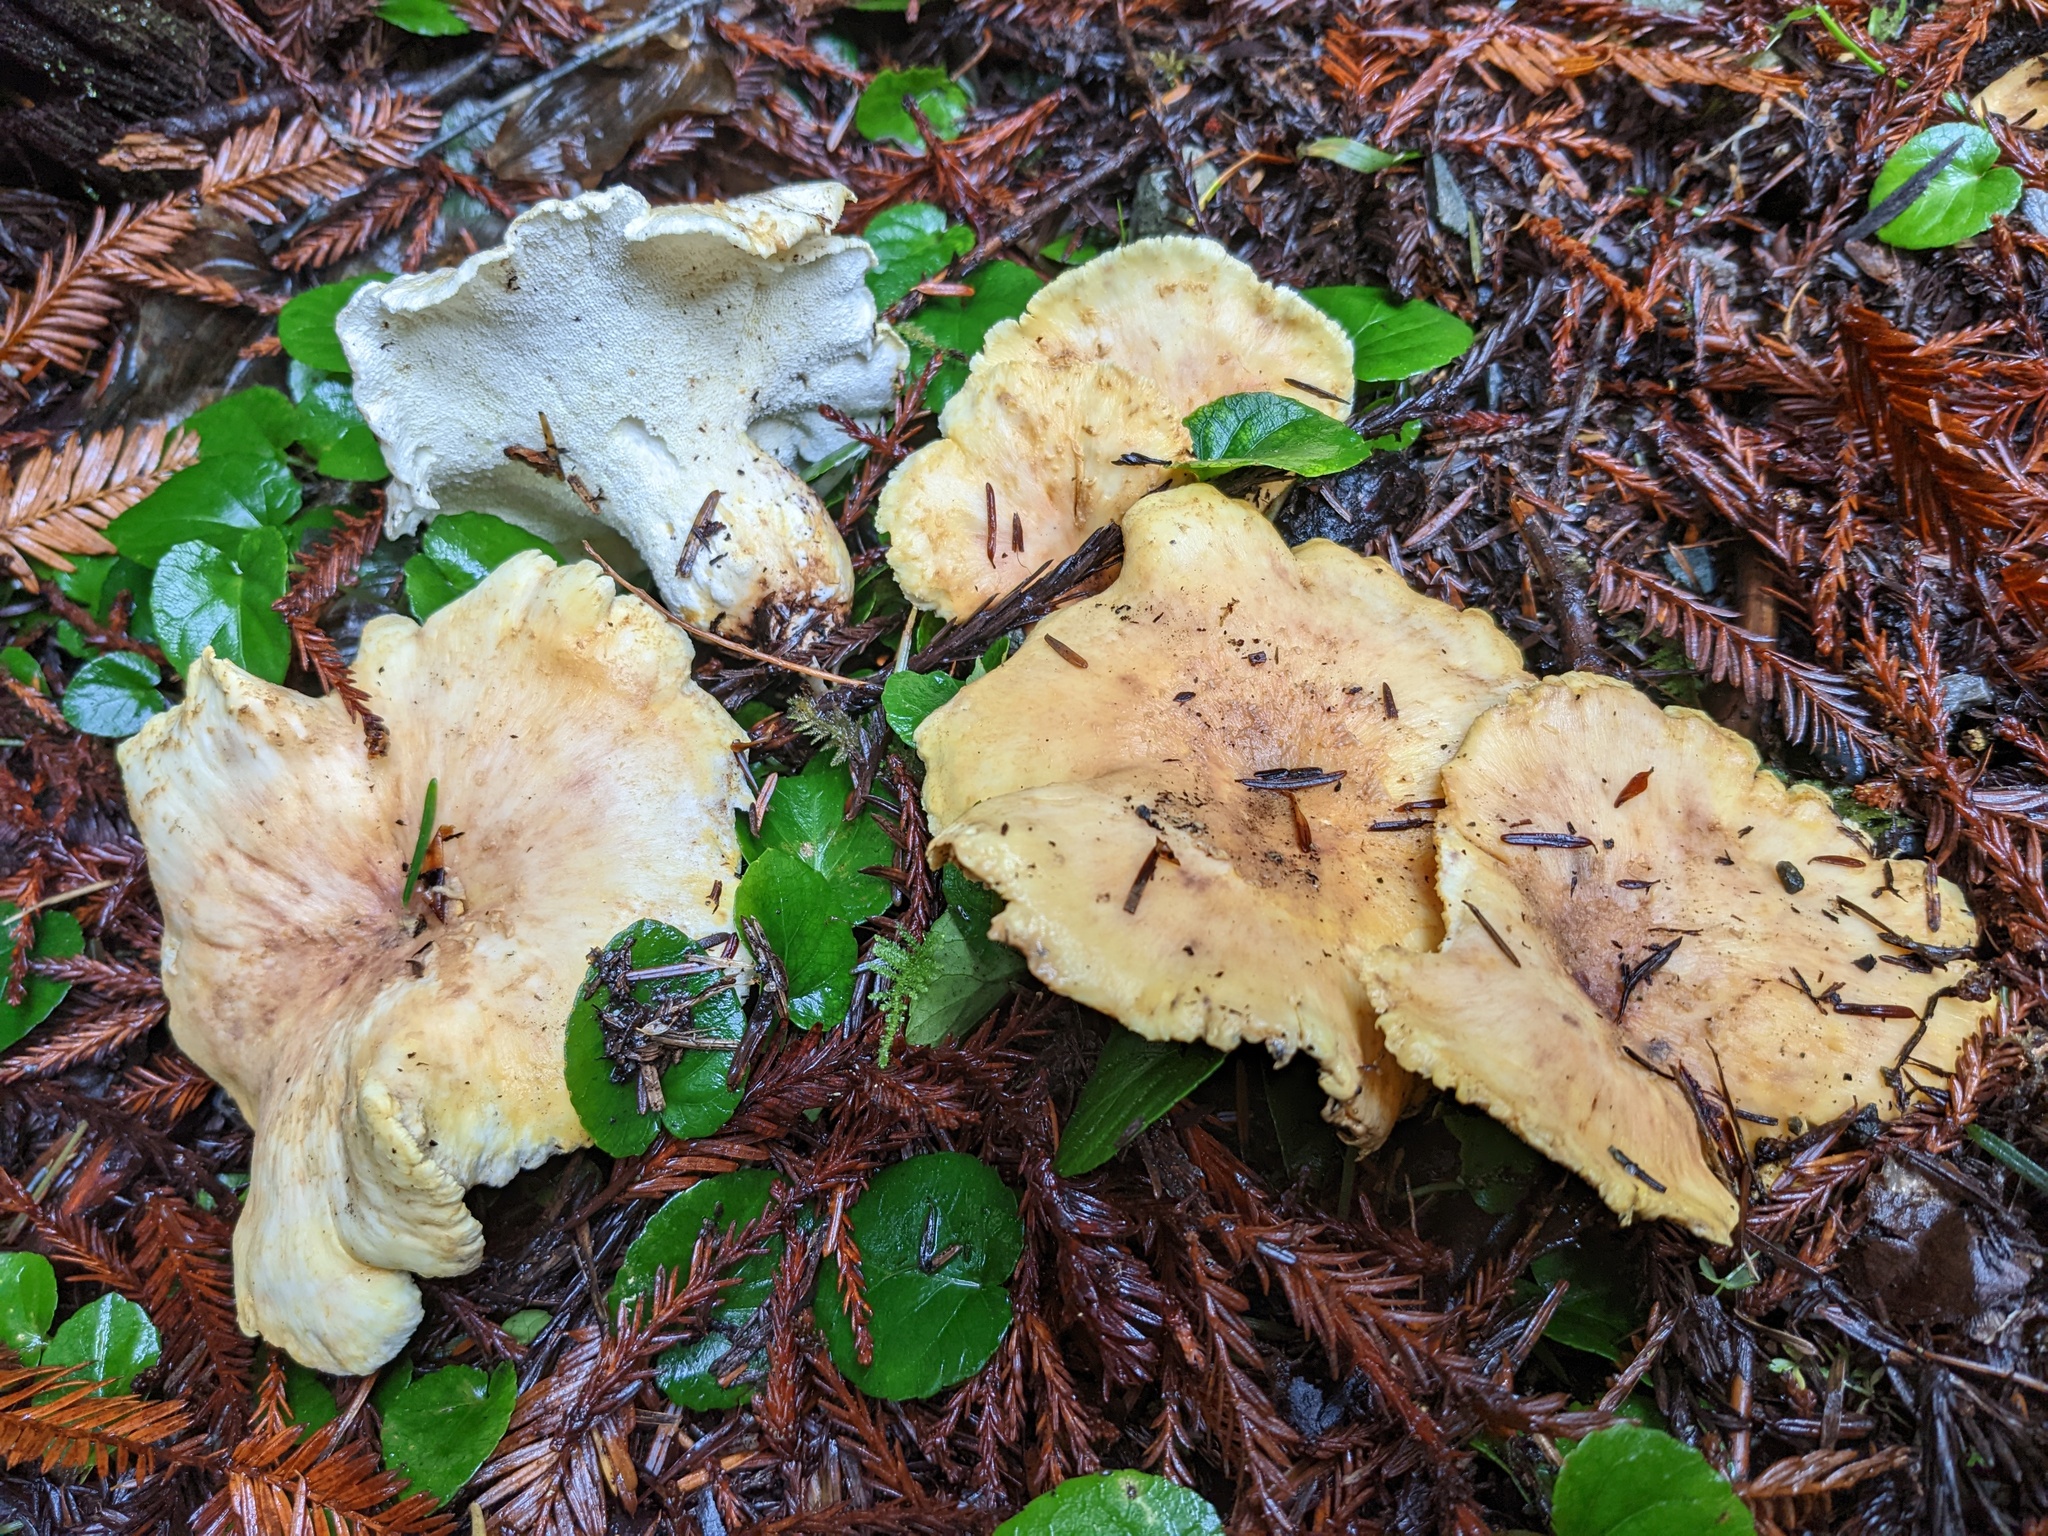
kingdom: Fungi
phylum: Basidiomycota
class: Agaricomycetes
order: Russulales
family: Albatrellaceae
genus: Albatrellus
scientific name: Albatrellus avellaneus
